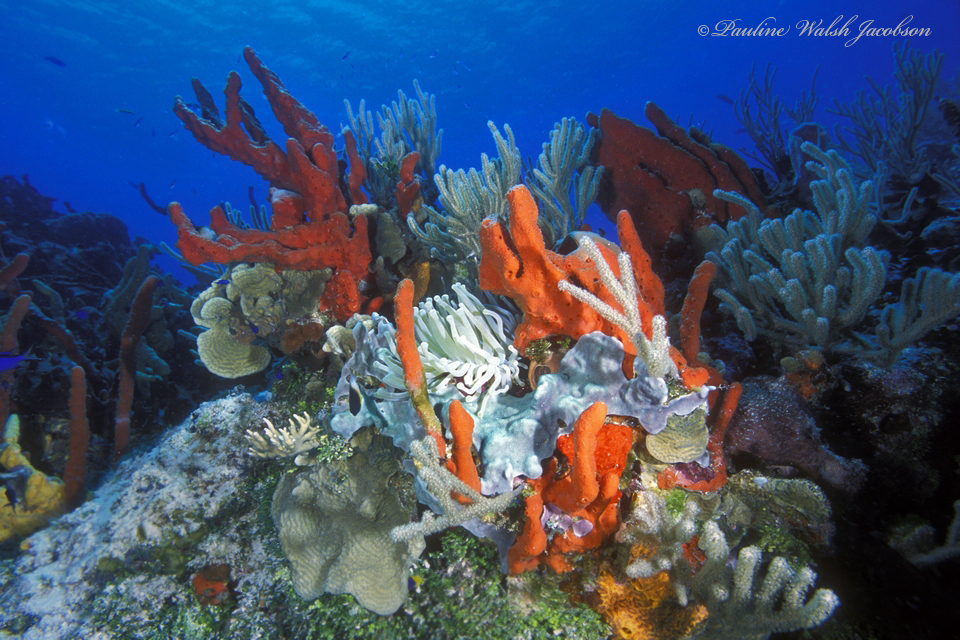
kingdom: Animalia
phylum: Porifera
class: Demospongiae
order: Haplosclerida
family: Niphatidae
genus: Amphimedon
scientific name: Amphimedon compressa
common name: Red sponge
